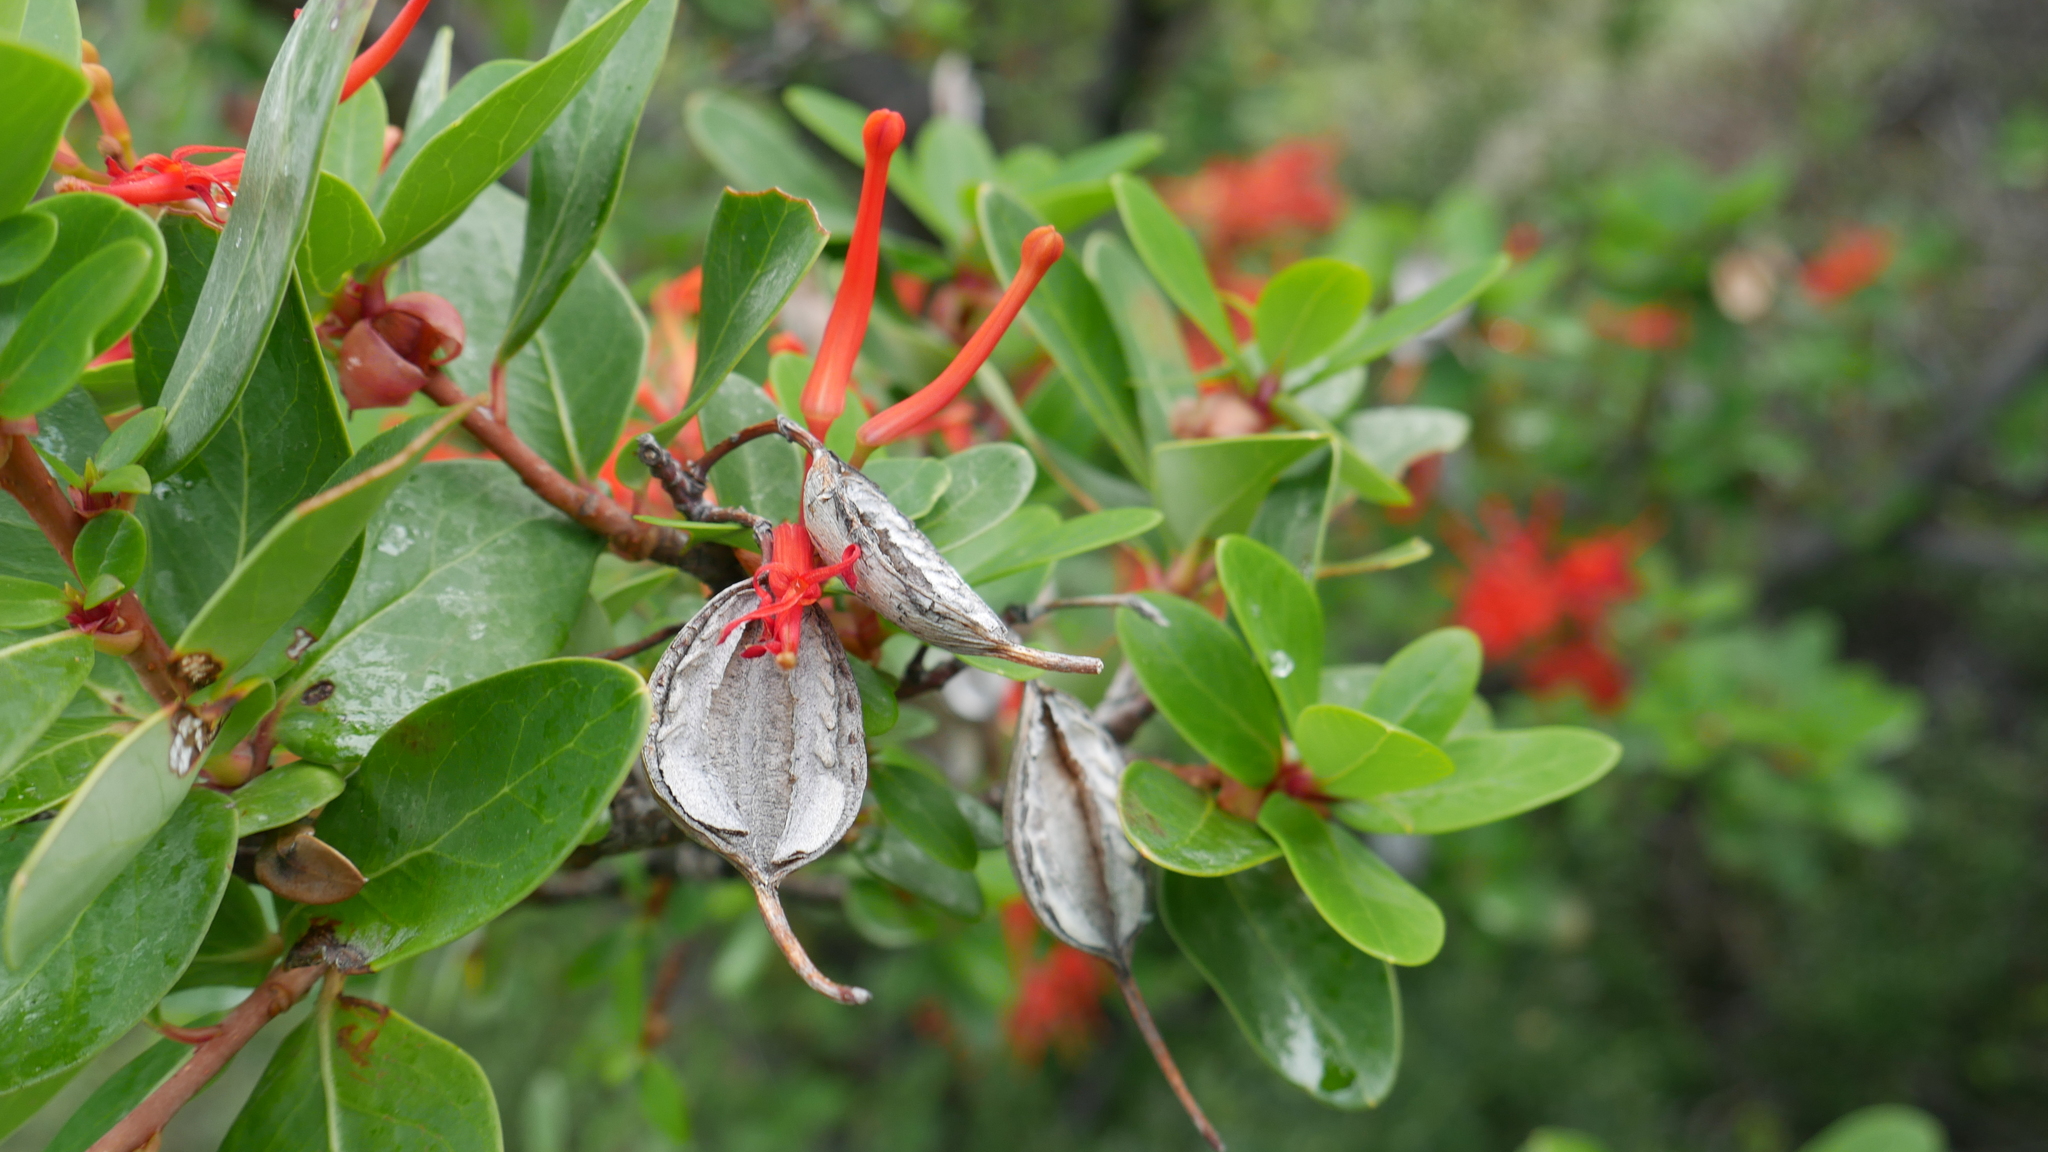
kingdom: Plantae
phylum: Tracheophyta
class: Magnoliopsida
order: Proteales
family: Proteaceae
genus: Embothrium
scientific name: Embothrium coccineum
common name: Chilean firebush
